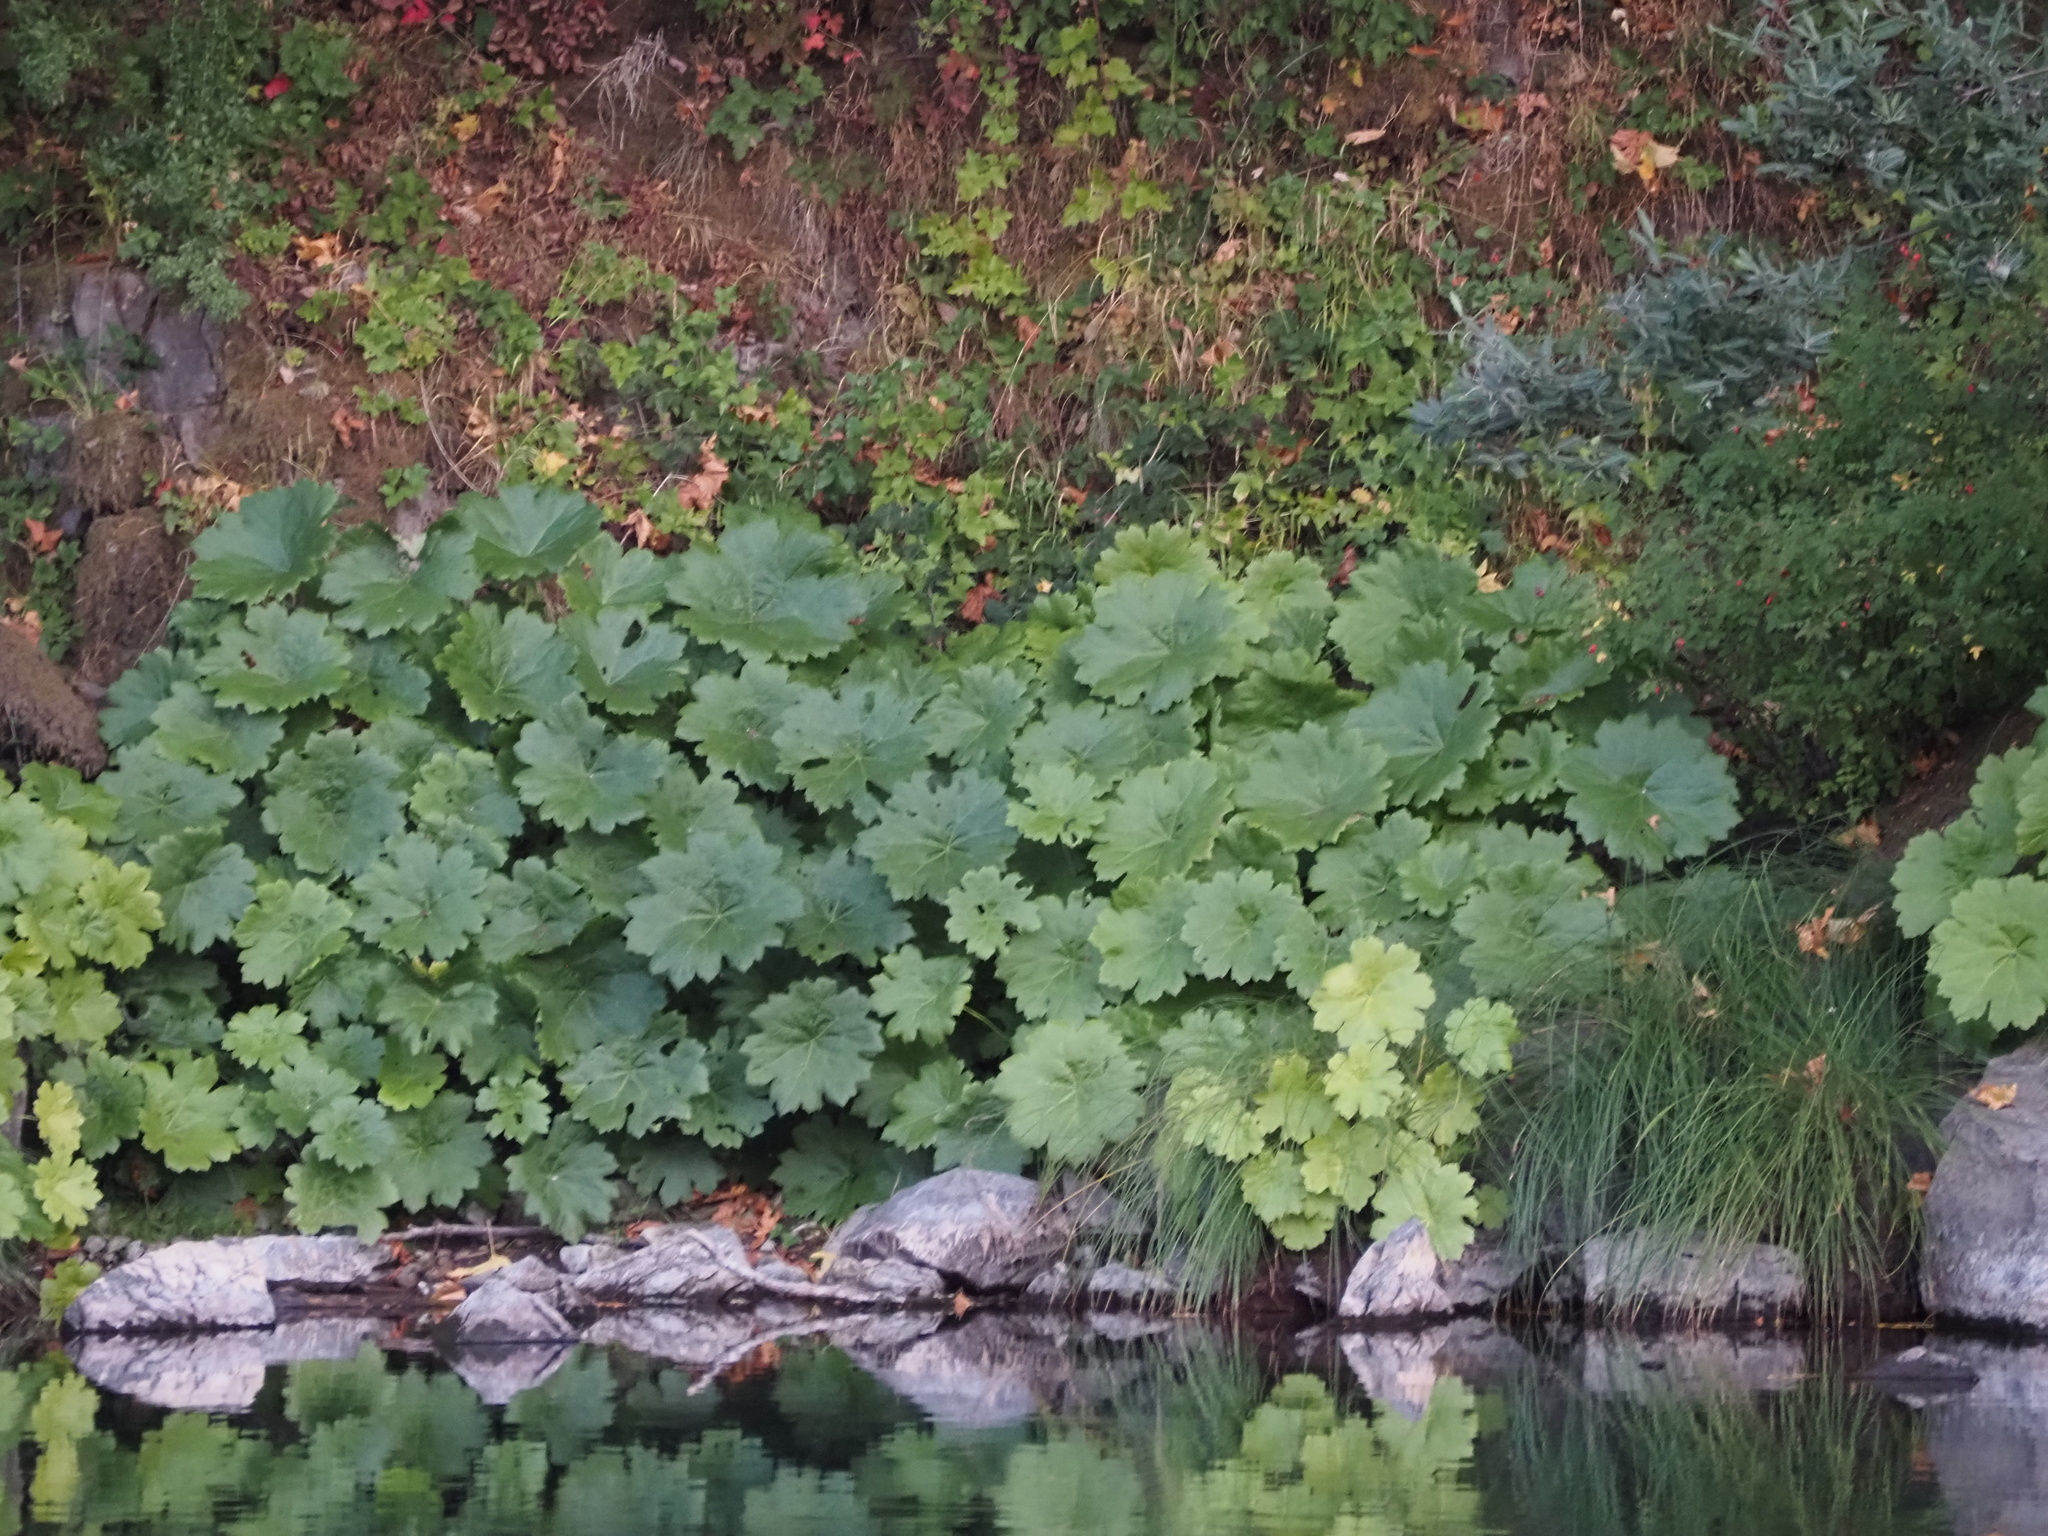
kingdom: Plantae
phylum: Tracheophyta
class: Magnoliopsida
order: Saxifragales
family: Saxifragaceae
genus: Darmera
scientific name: Darmera peltata
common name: Indian-rhubarb
